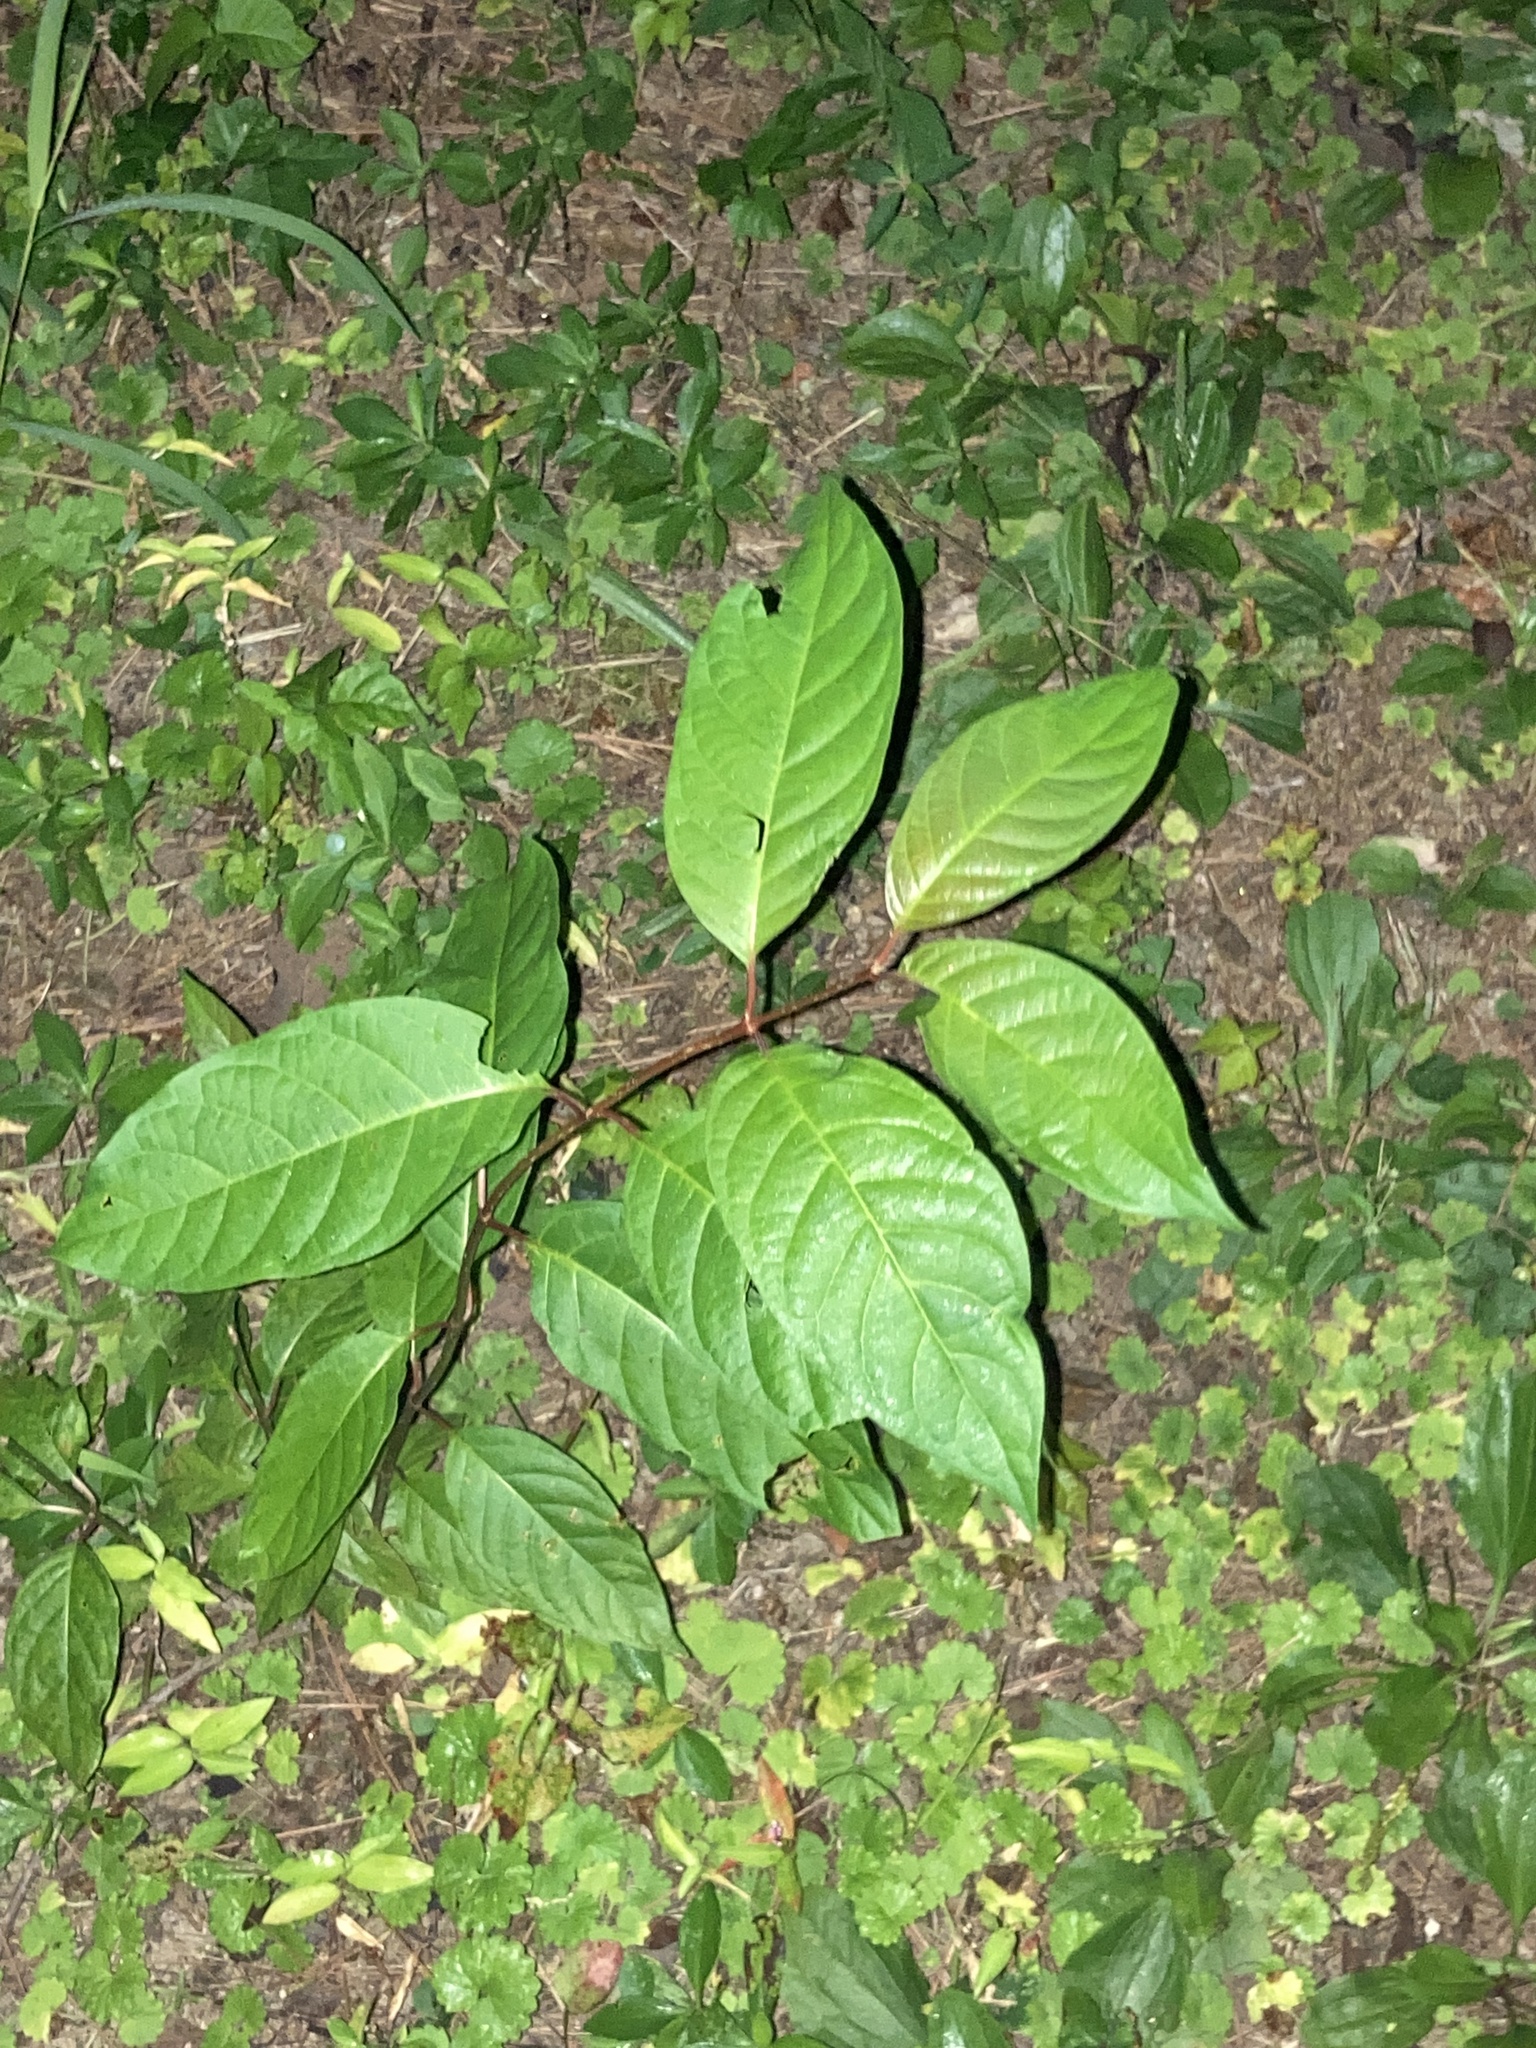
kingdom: Plantae
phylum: Tracheophyta
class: Magnoliopsida
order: Gentianales
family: Rubiaceae
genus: Cephalanthus
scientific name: Cephalanthus occidentalis
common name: Button-willow
